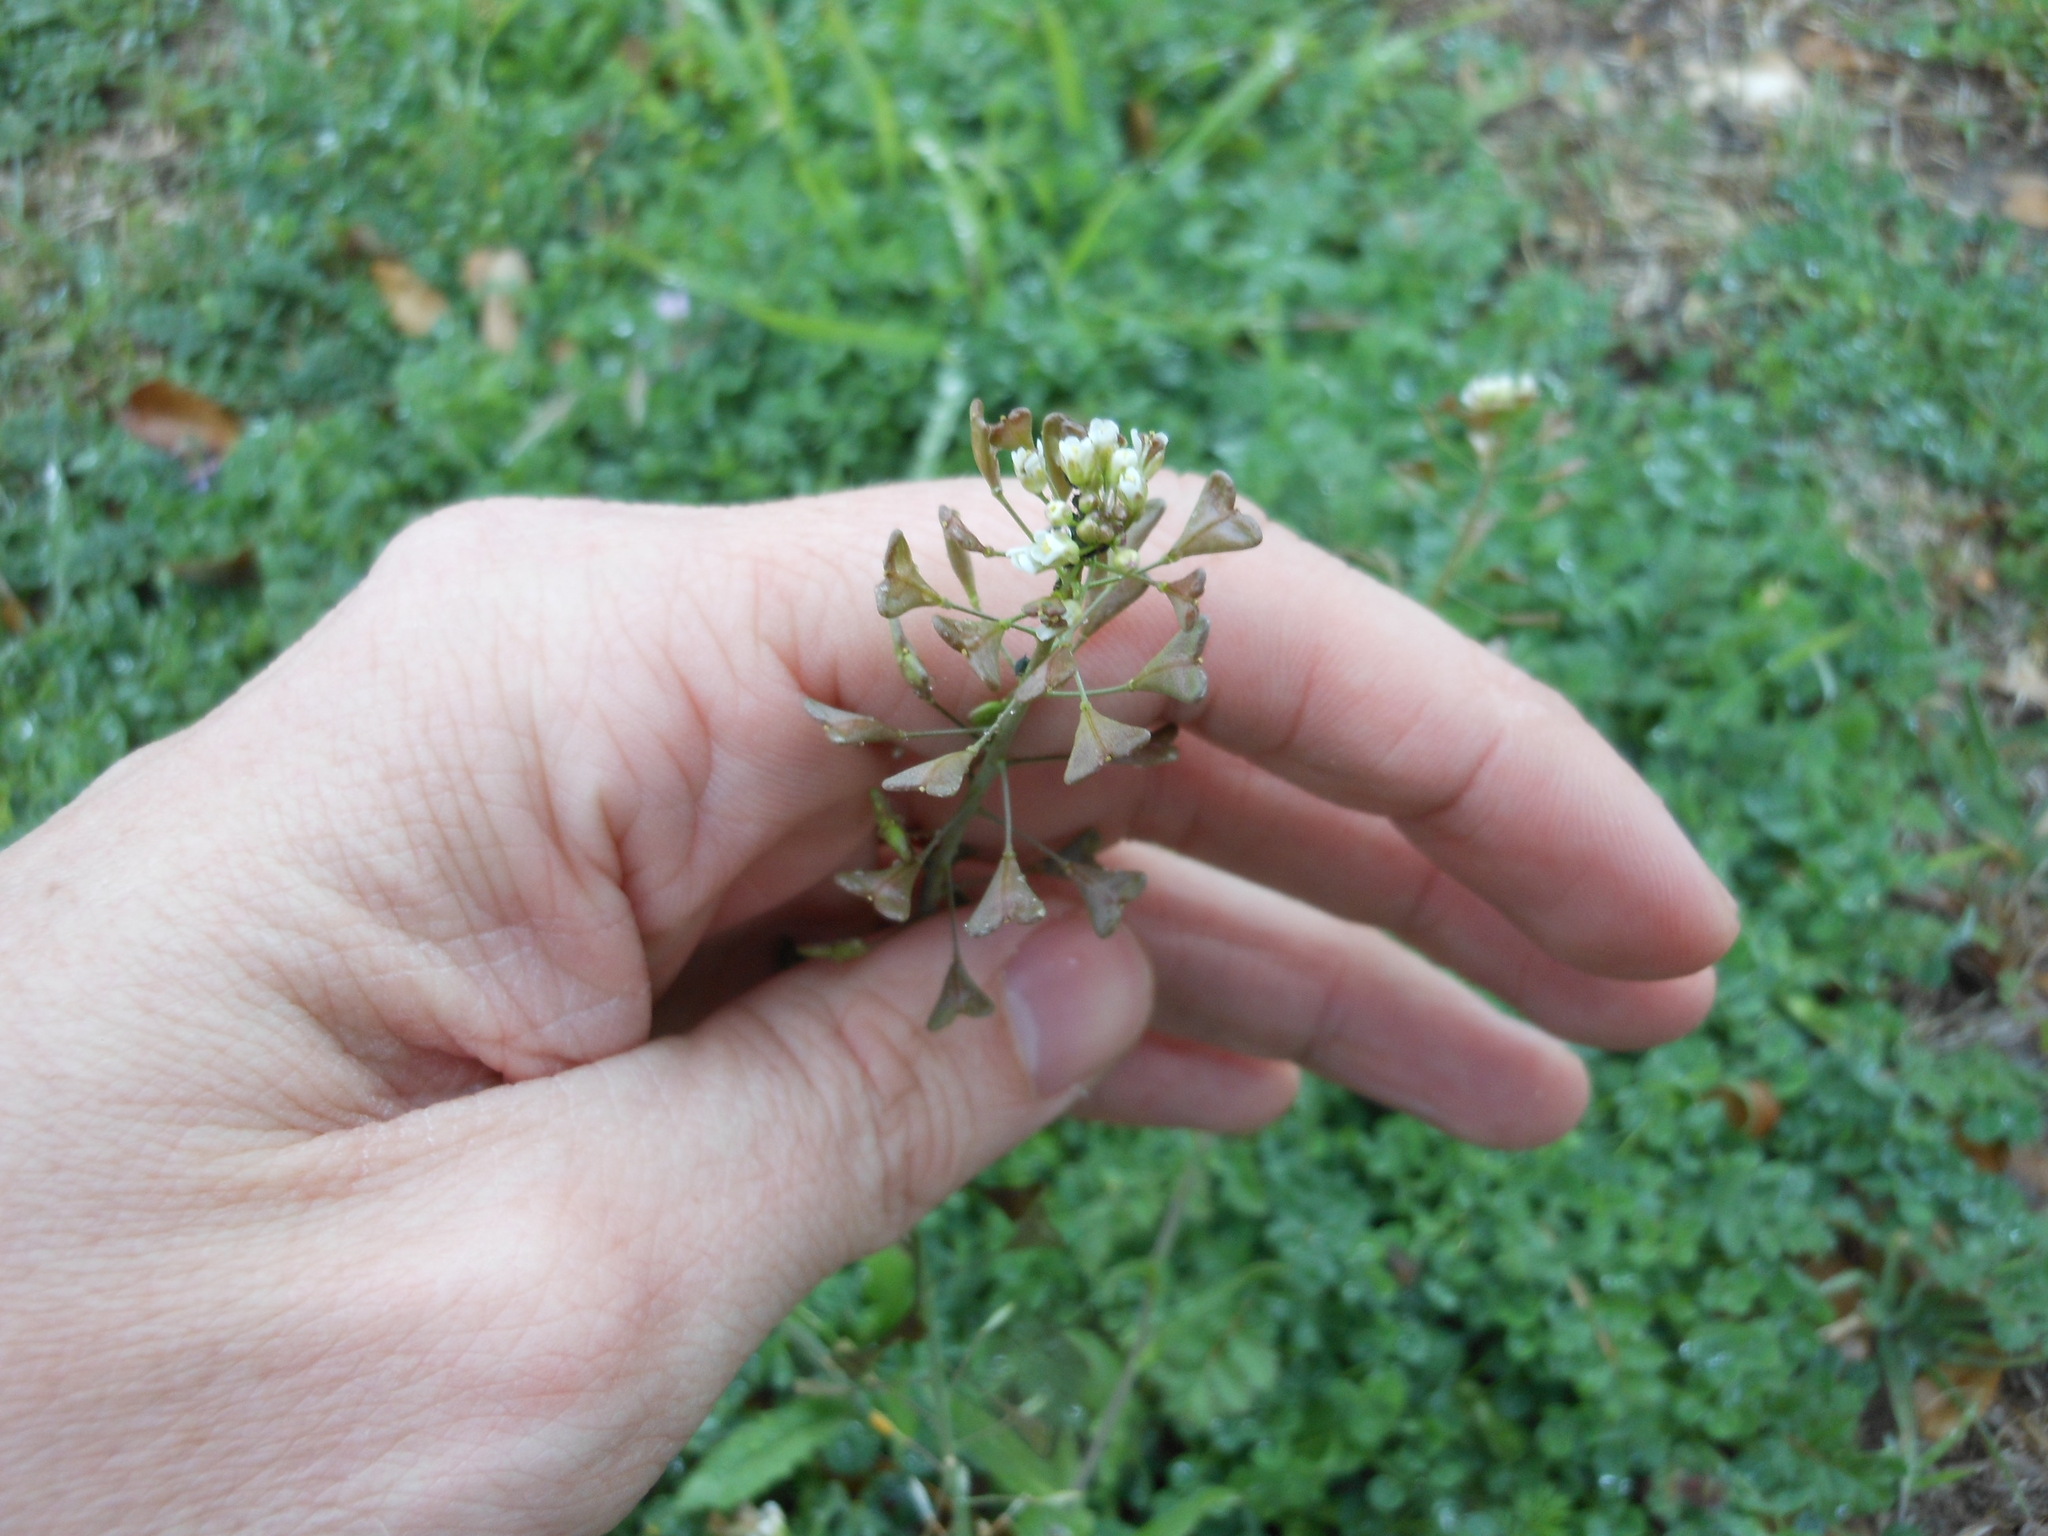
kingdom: Plantae
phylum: Tracheophyta
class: Magnoliopsida
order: Brassicales
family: Brassicaceae
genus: Capsella
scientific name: Capsella bursa-pastoris
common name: Shepherd's purse
